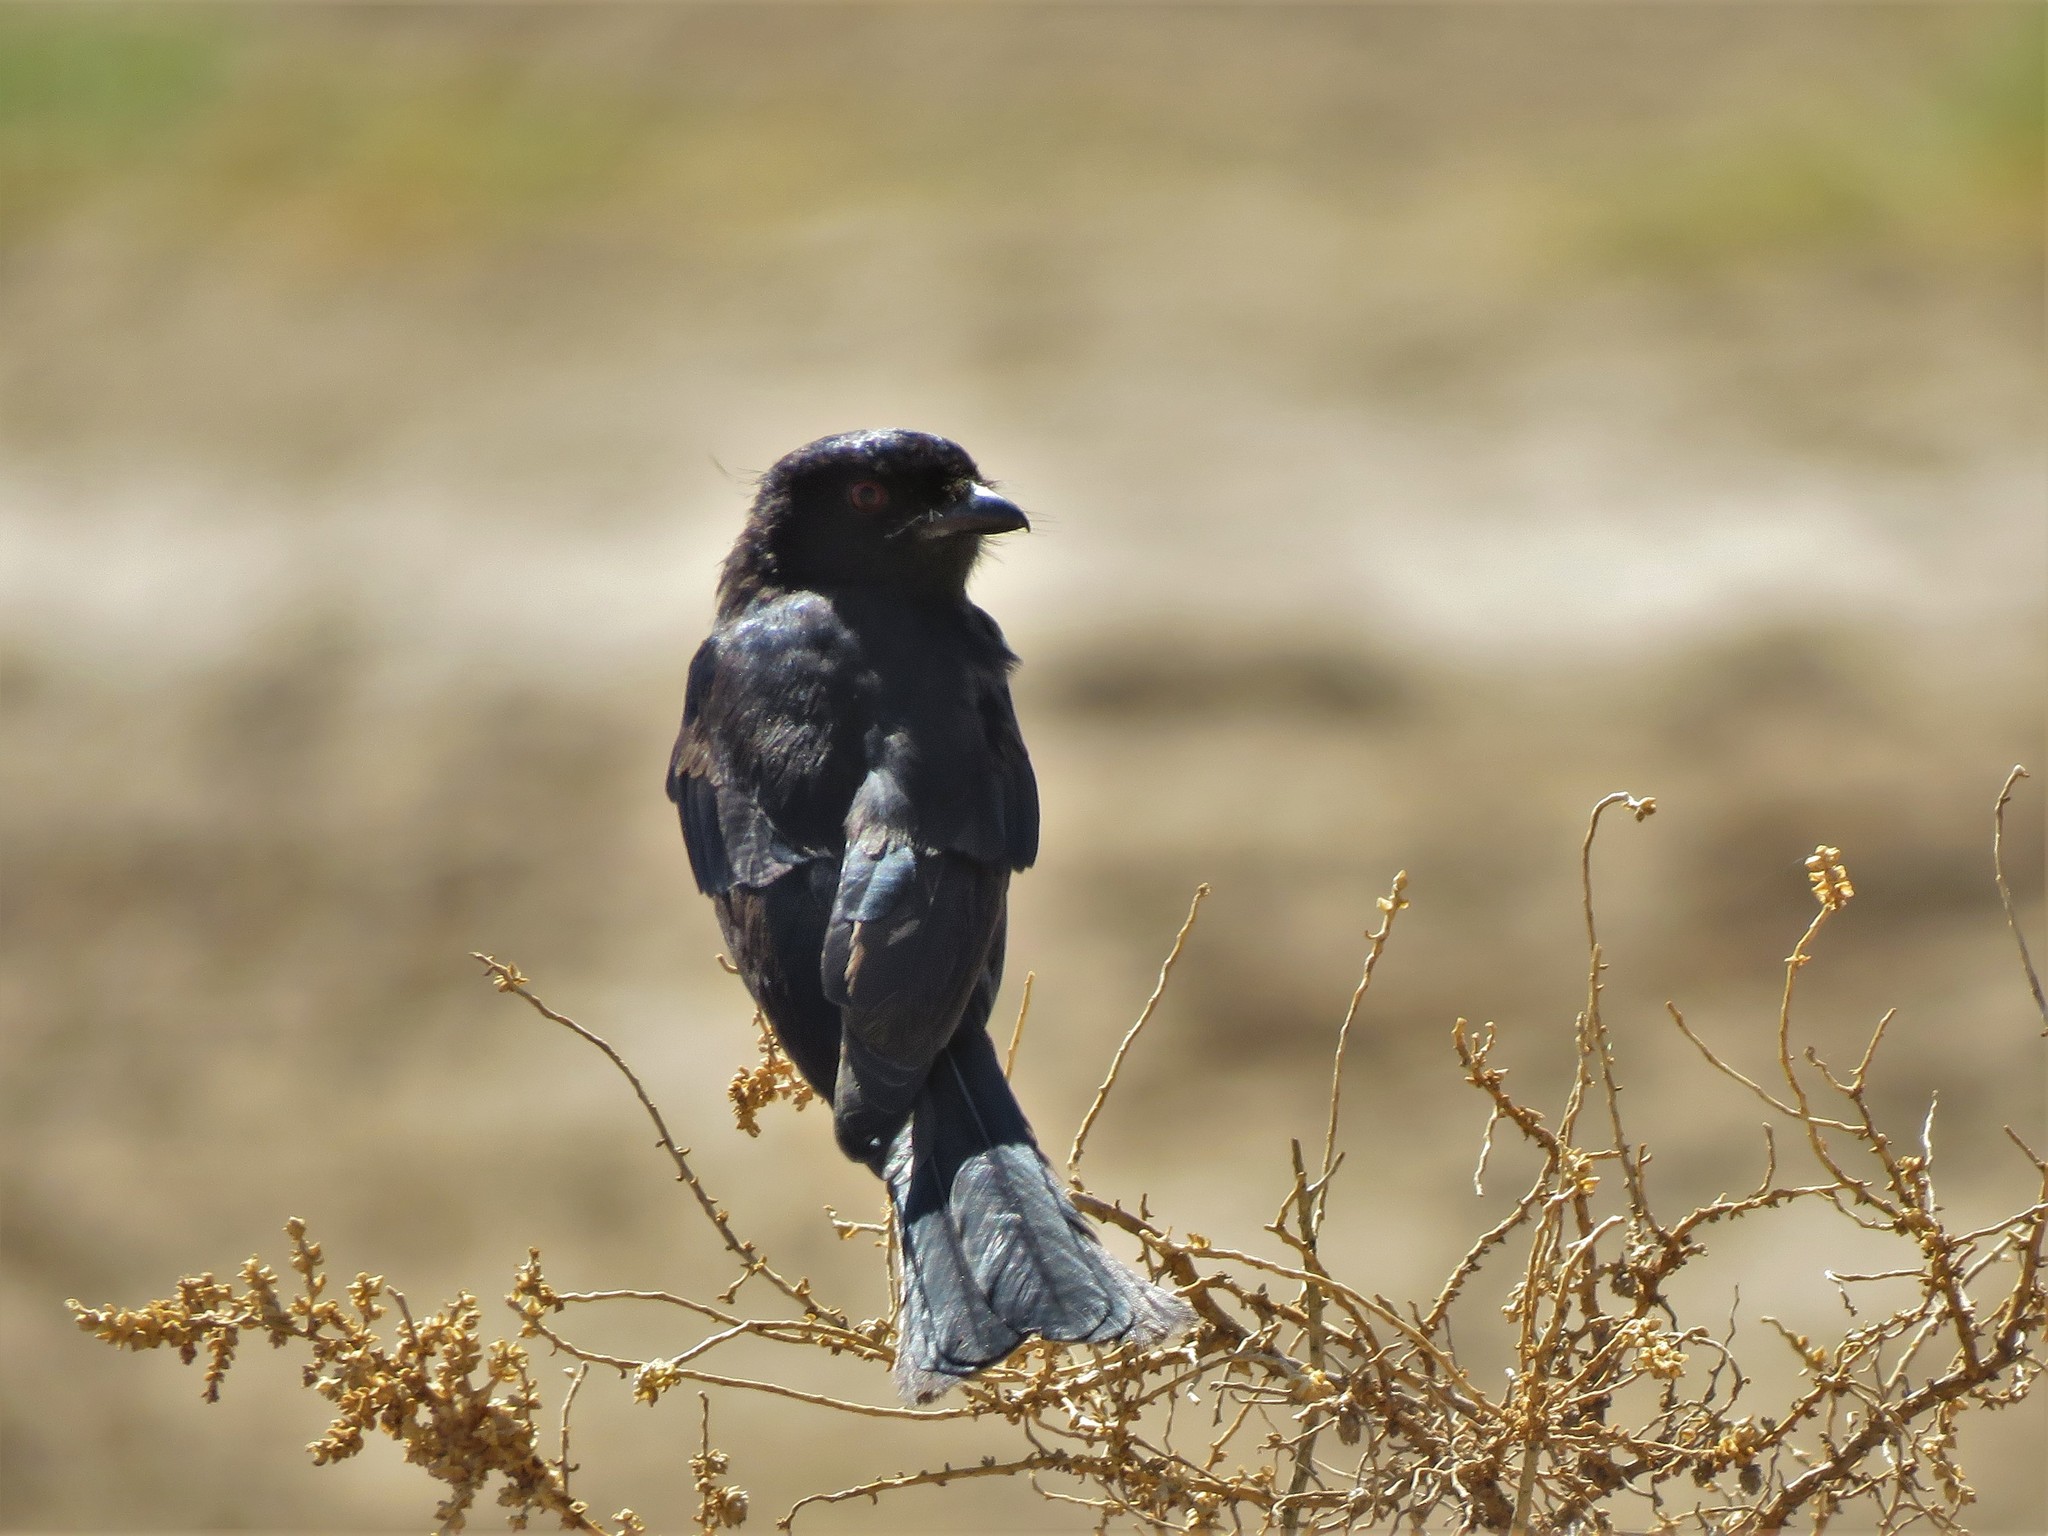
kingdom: Animalia
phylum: Chordata
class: Aves
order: Passeriformes
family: Dicruridae
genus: Dicrurus
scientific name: Dicrurus adsimilis
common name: Fork-tailed drongo
